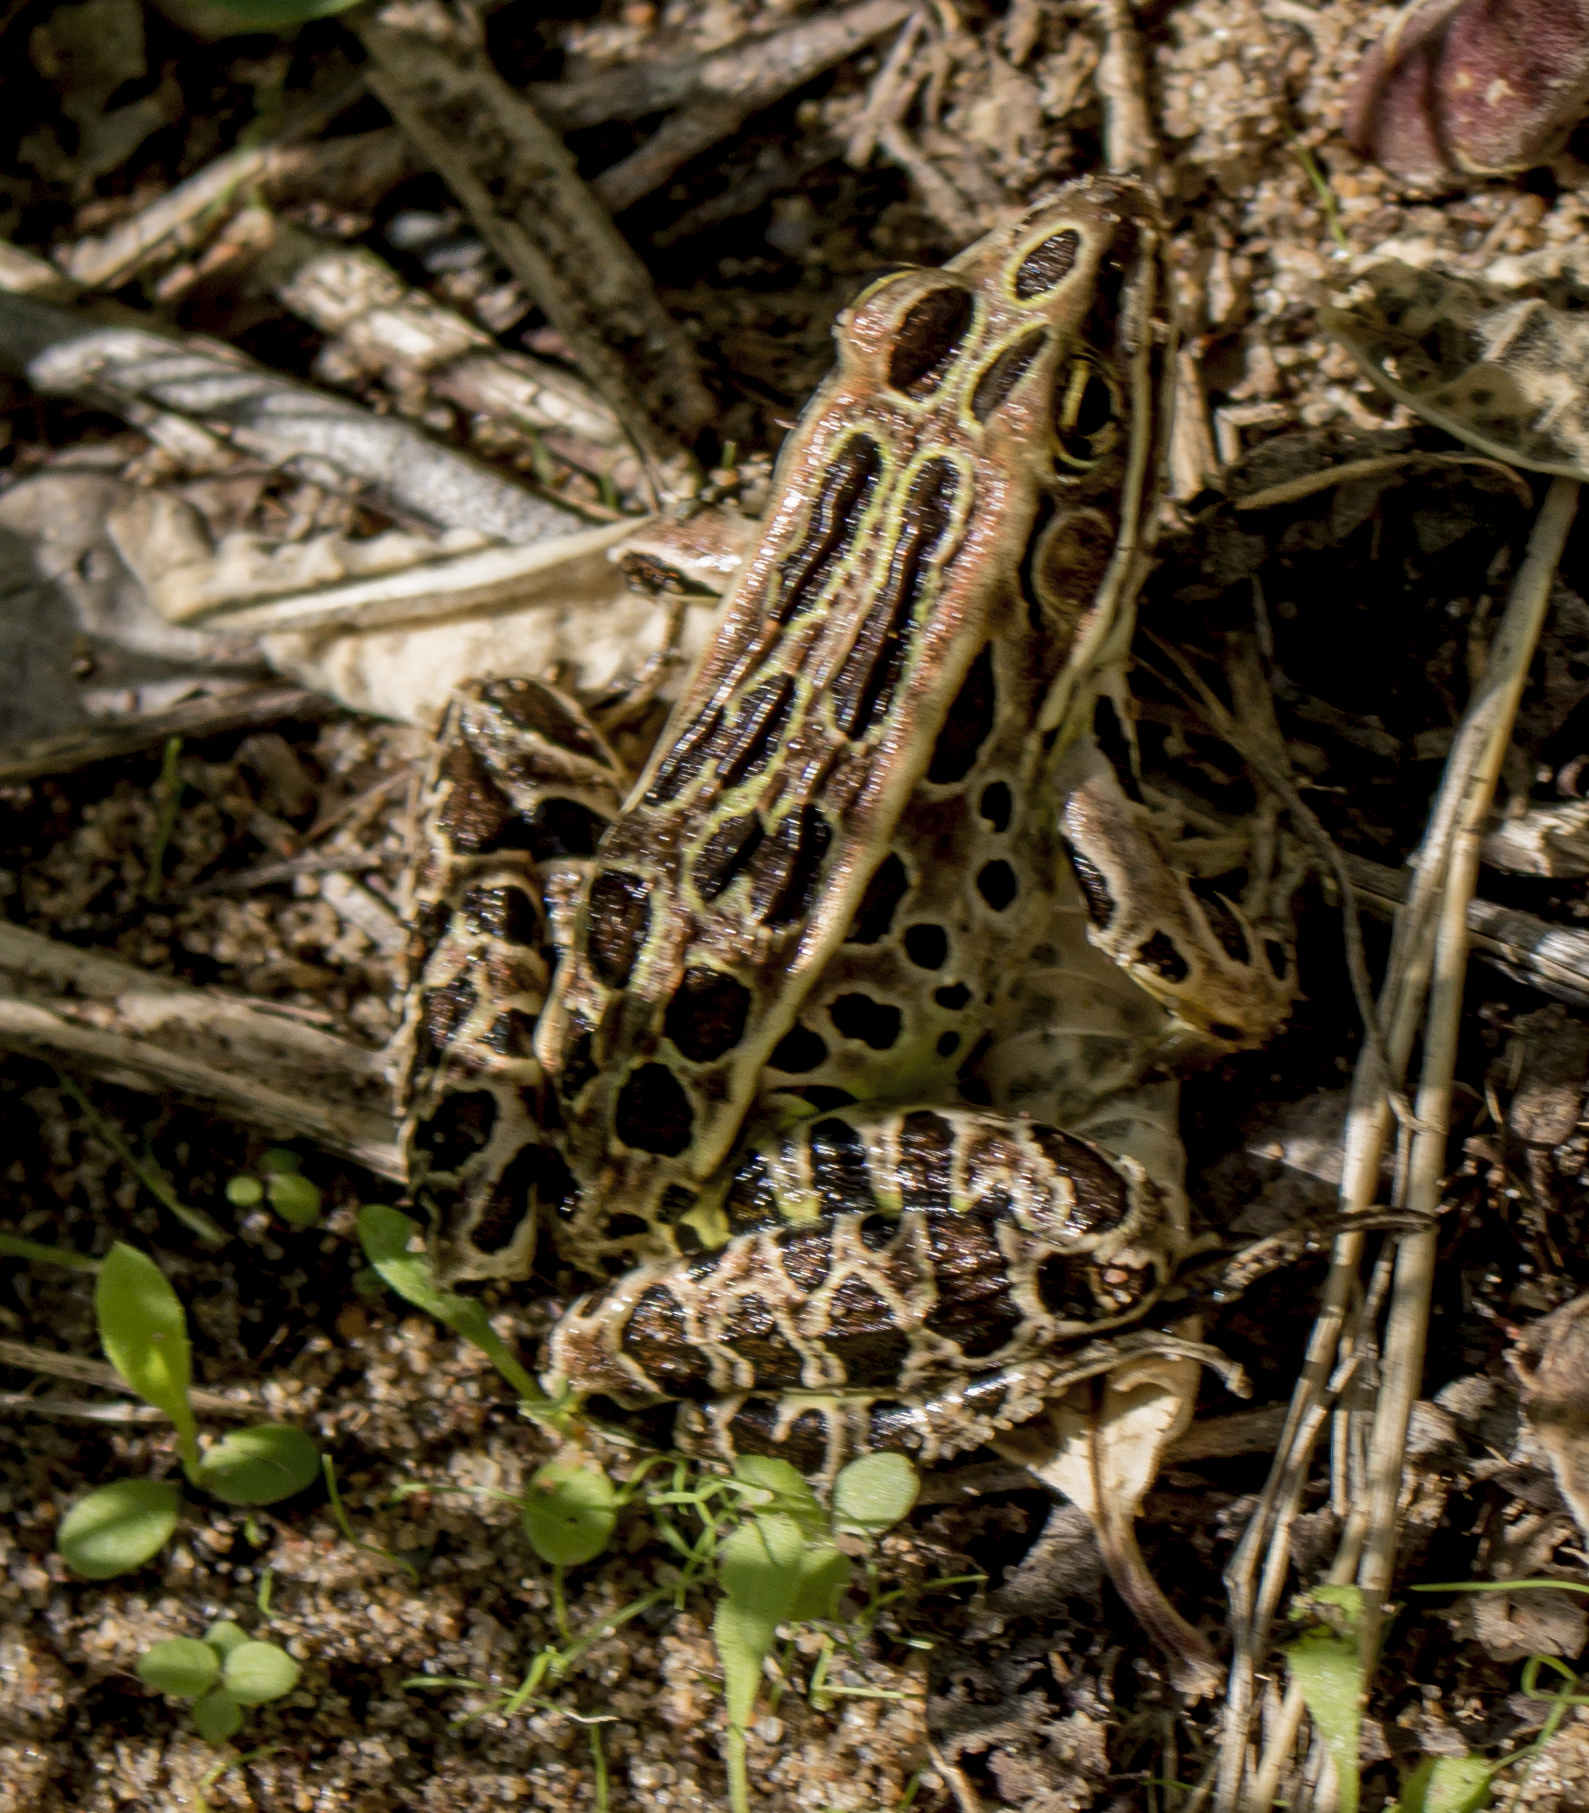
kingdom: Animalia
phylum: Chordata
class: Amphibia
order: Anura
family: Ranidae
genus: Lithobates
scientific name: Lithobates pipiens
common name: Northern leopard frog
